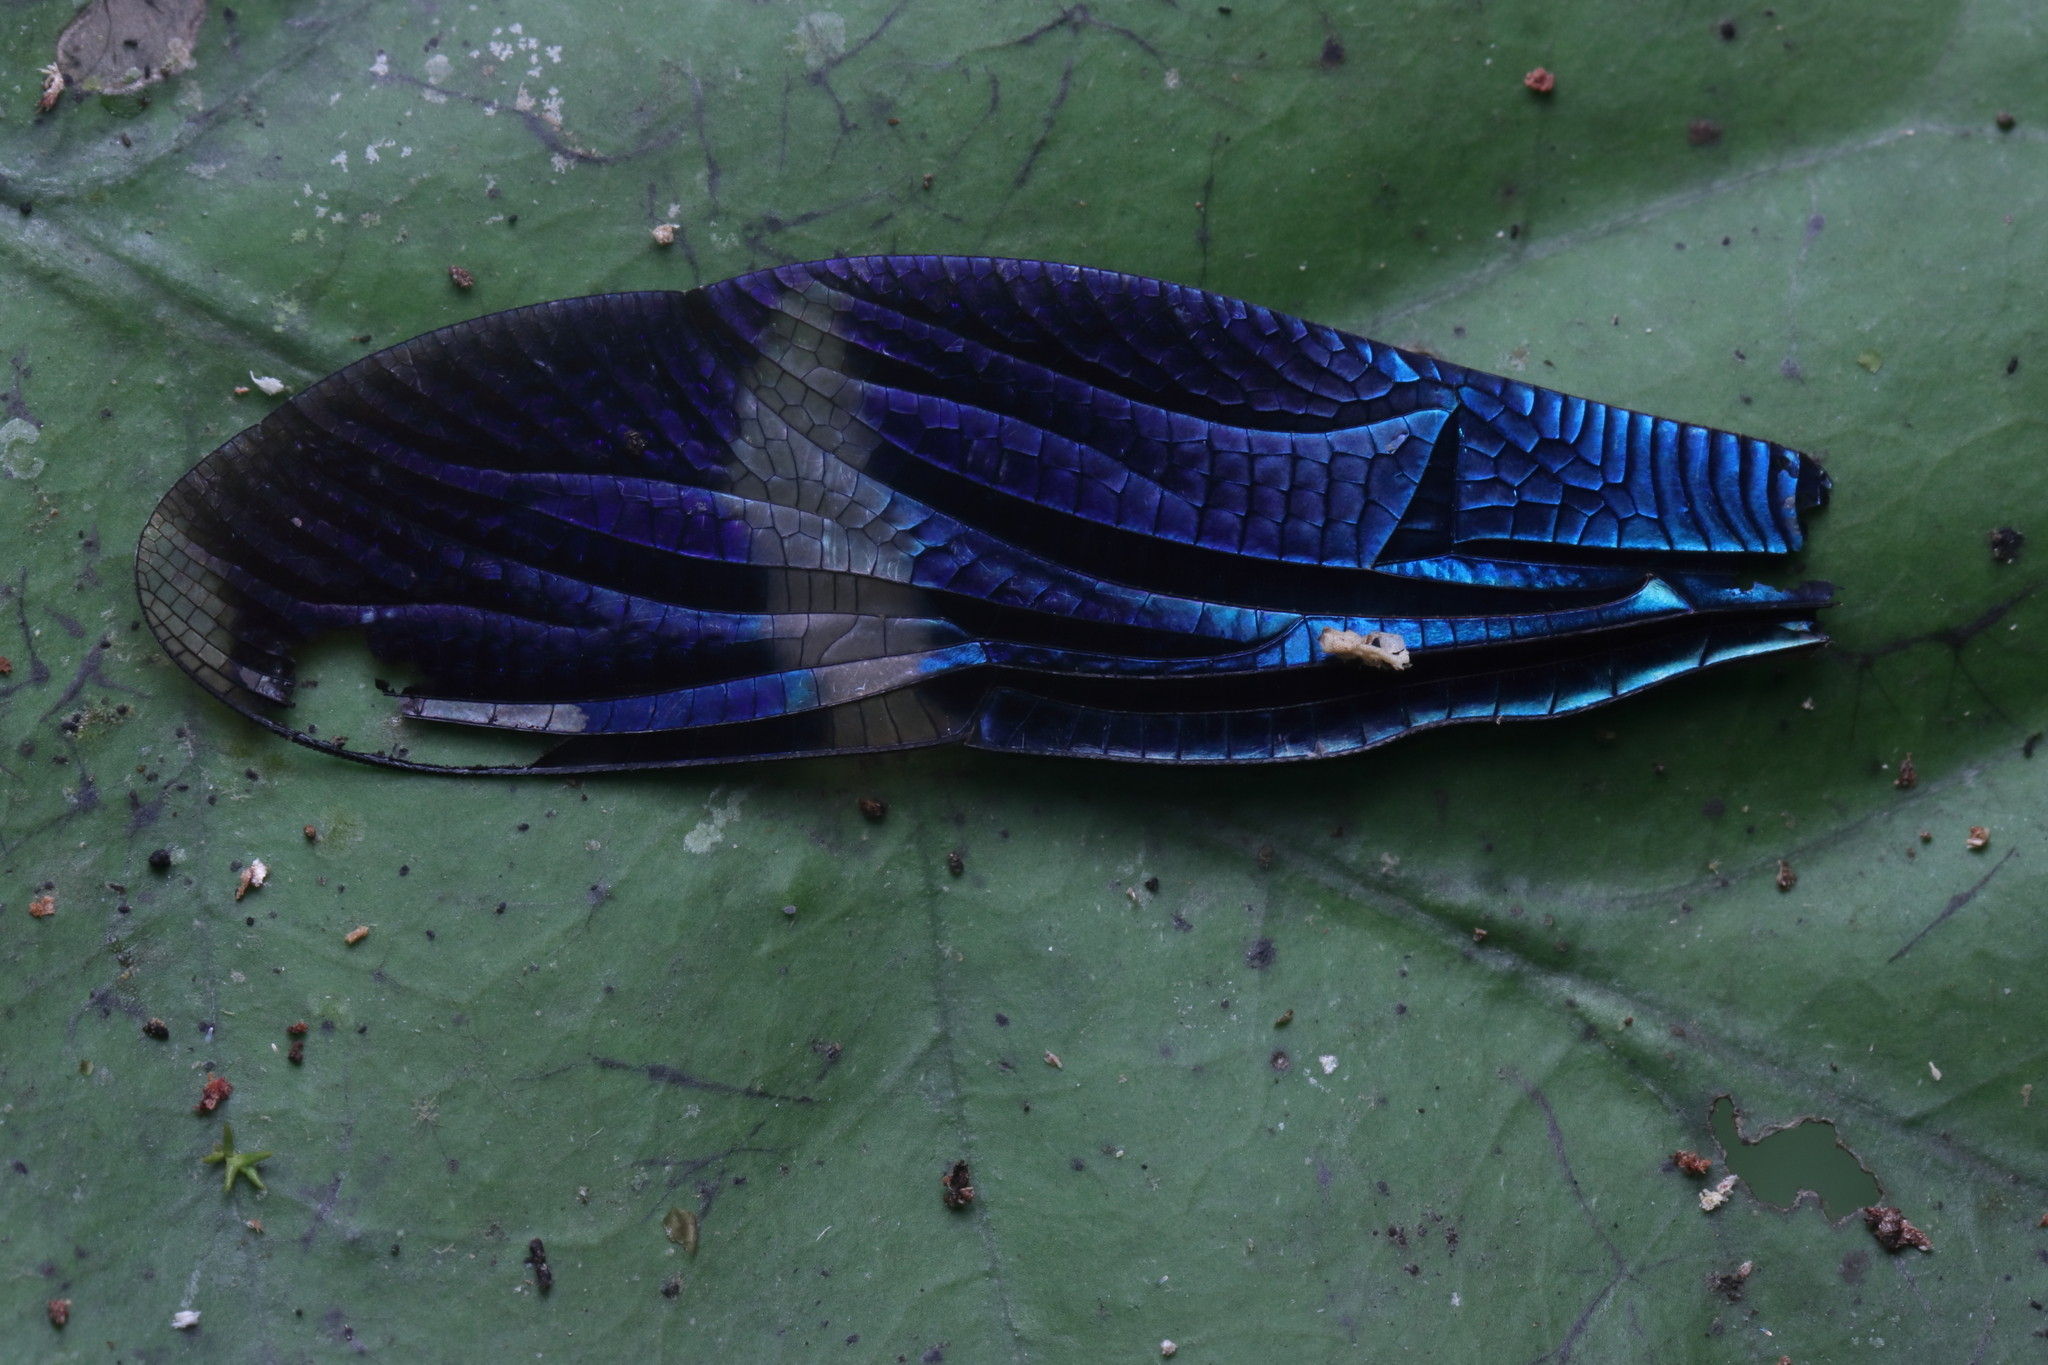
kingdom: Animalia
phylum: Arthropoda
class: Insecta
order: Odonata
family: Libellulidae
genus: Zenithoptera
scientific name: Zenithoptera fasciata
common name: Rainforest bluewing
